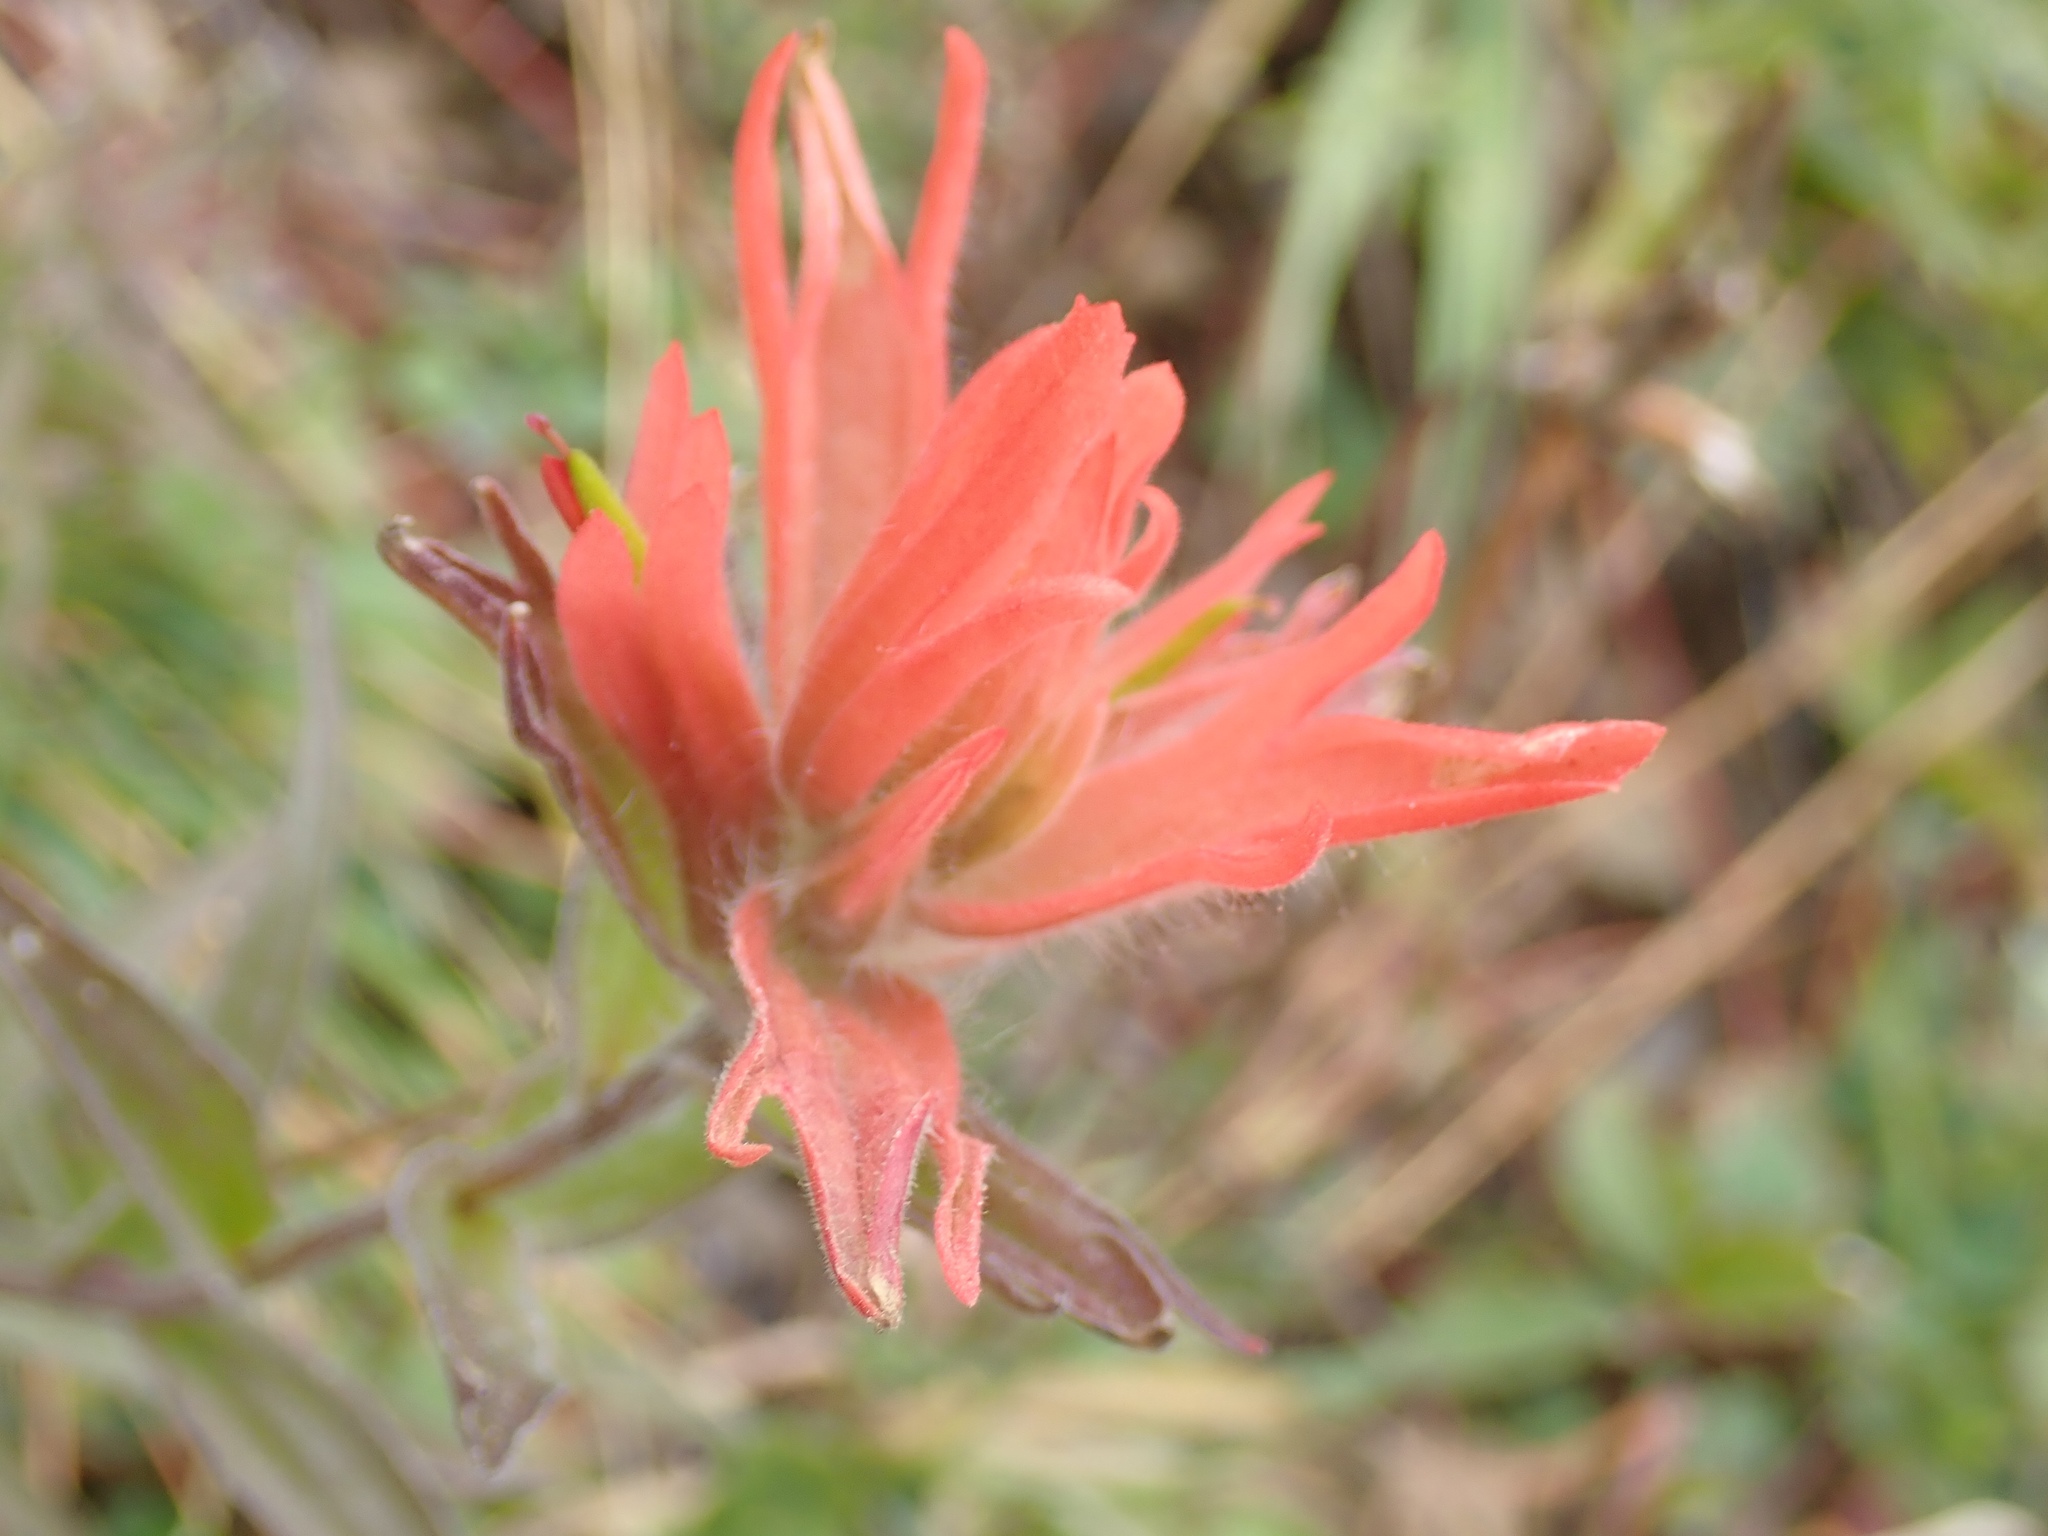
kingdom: Plantae
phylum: Tracheophyta
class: Magnoliopsida
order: Lamiales
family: Orobanchaceae
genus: Castilleja
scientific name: Castilleja miniata
